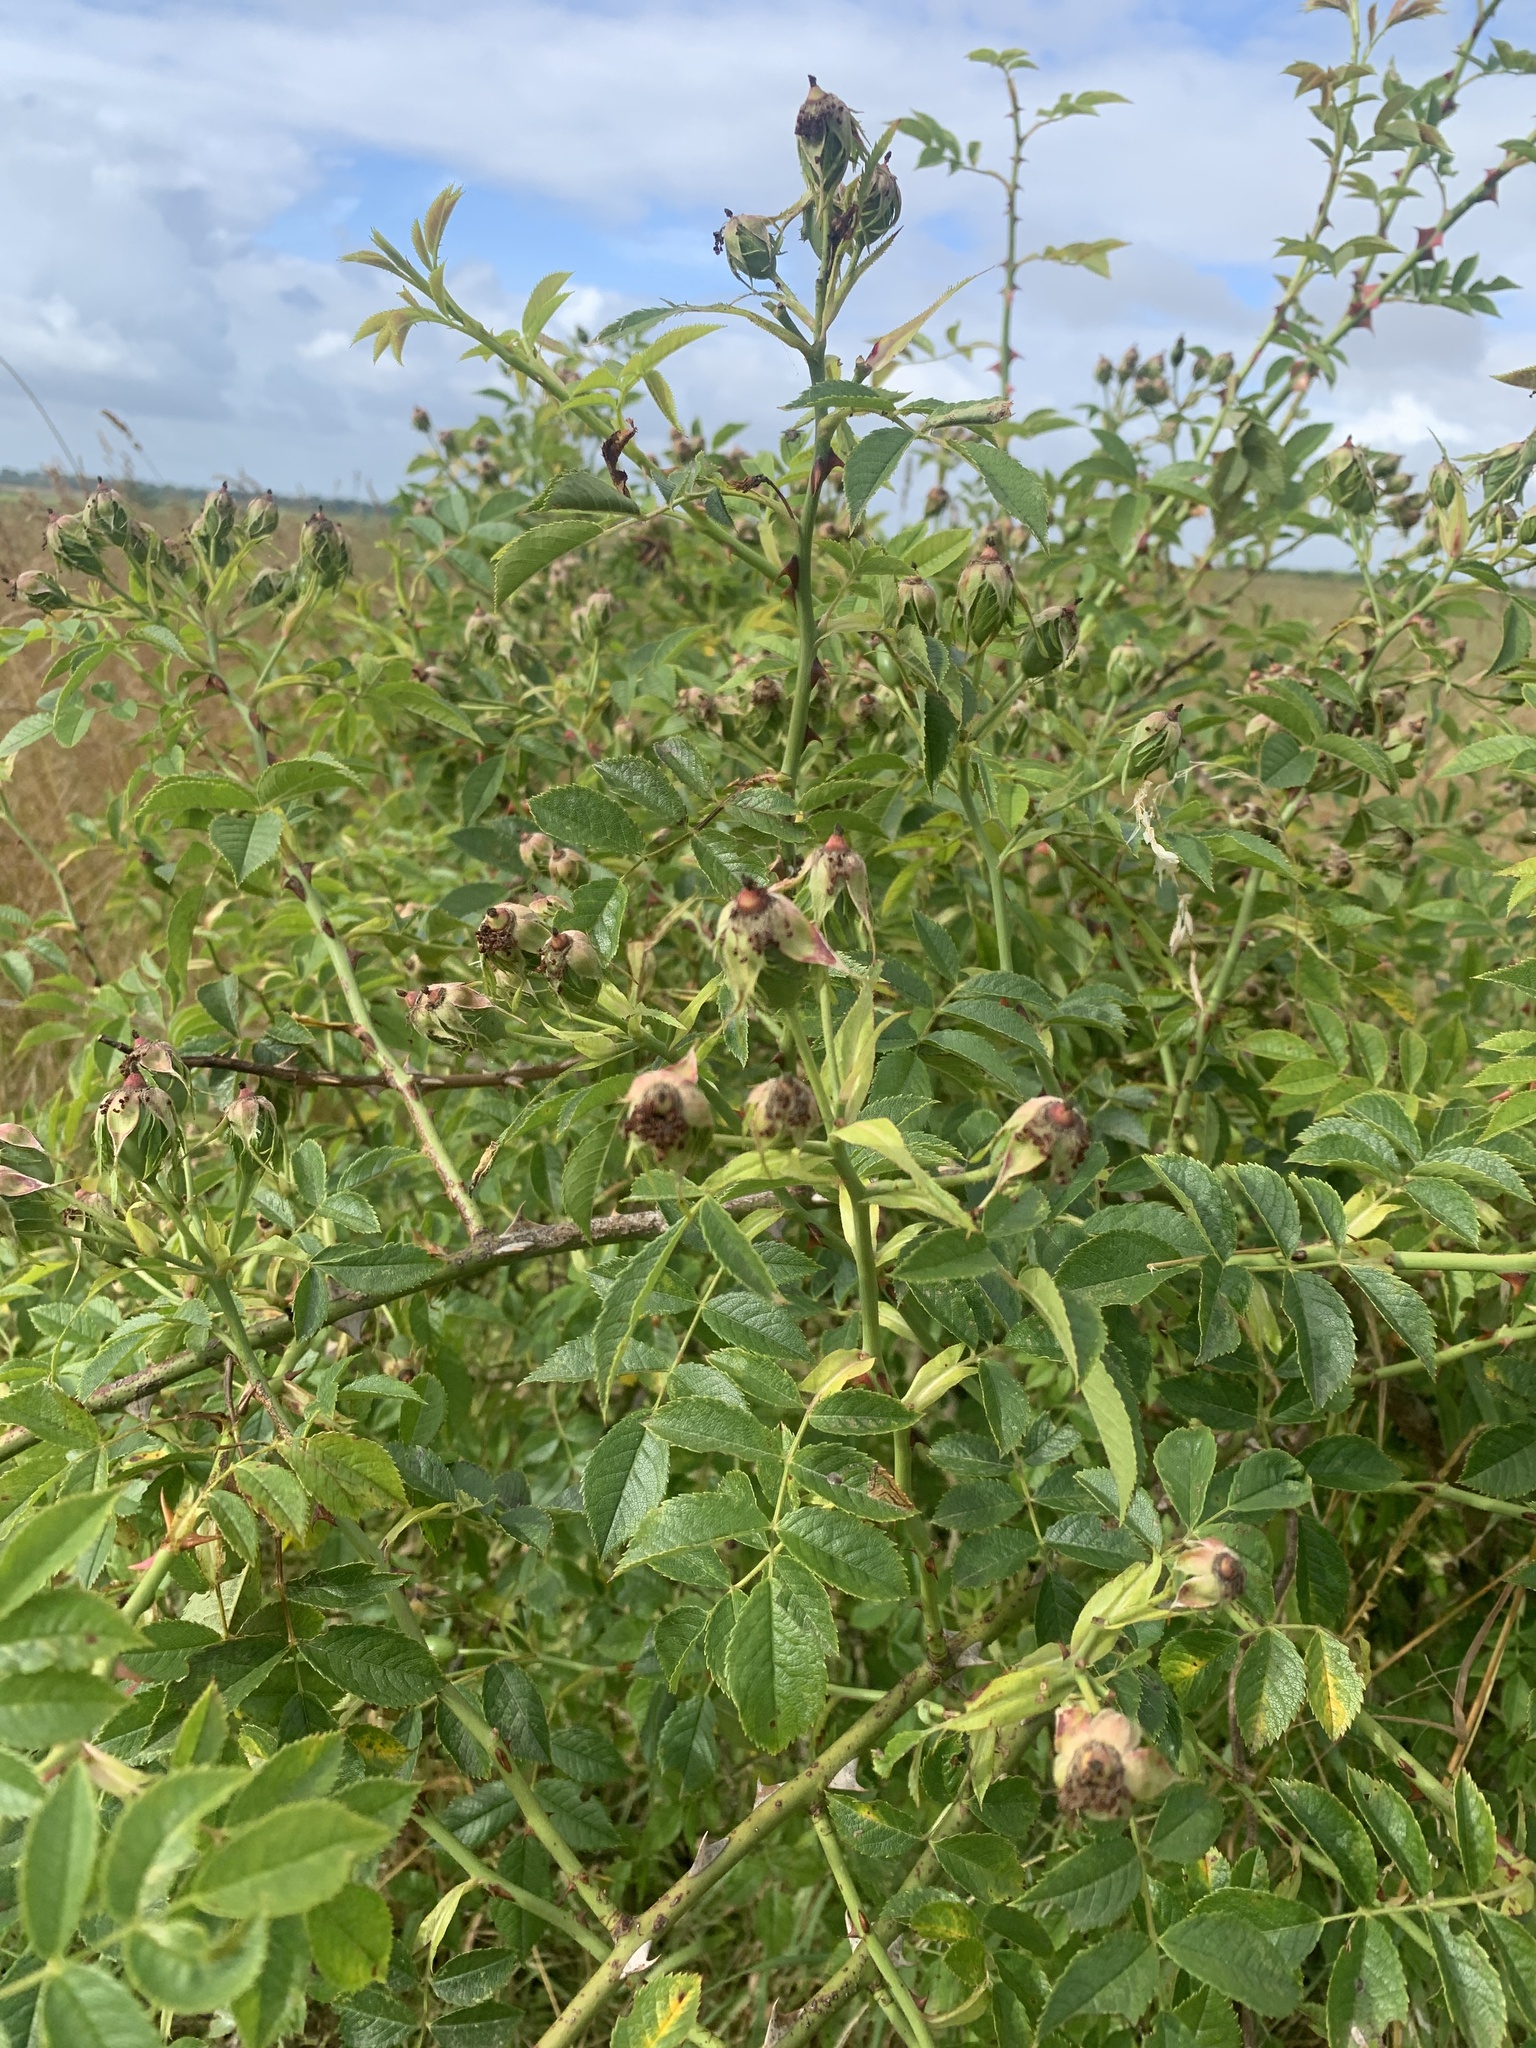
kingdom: Plantae
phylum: Tracheophyta
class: Magnoliopsida
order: Rosales
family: Rosaceae
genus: Rosa
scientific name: Rosa canina
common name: Dog rose
